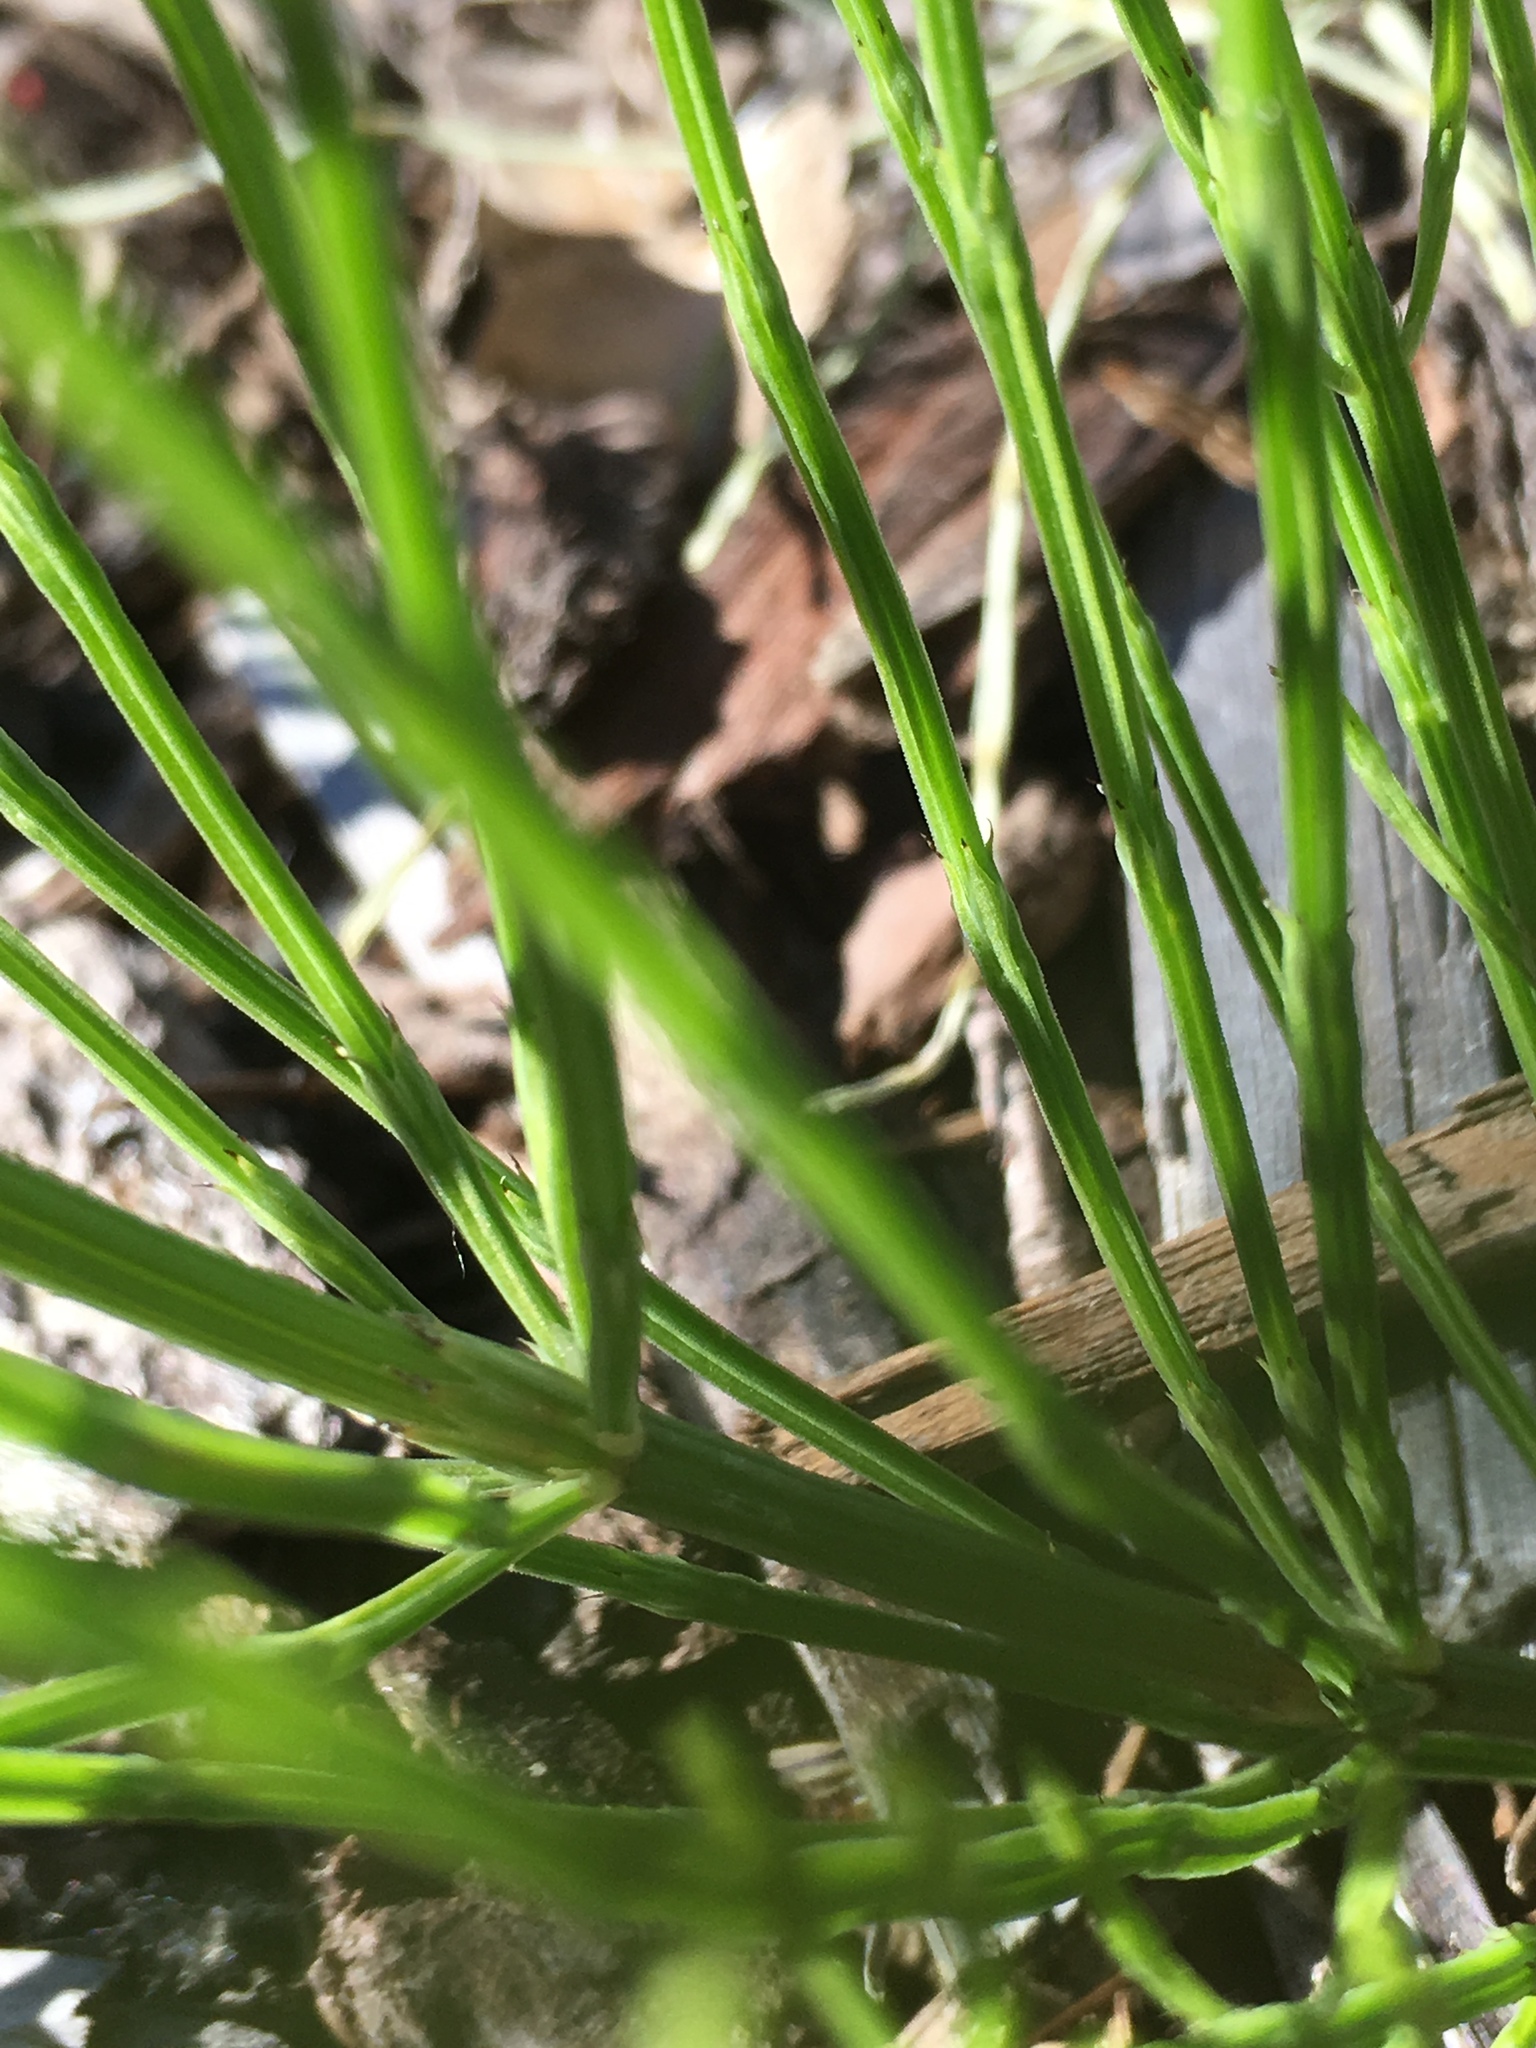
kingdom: Plantae
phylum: Tracheophyta
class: Polypodiopsida
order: Equisetales
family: Equisetaceae
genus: Equisetum
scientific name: Equisetum arvense
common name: Field horsetail
